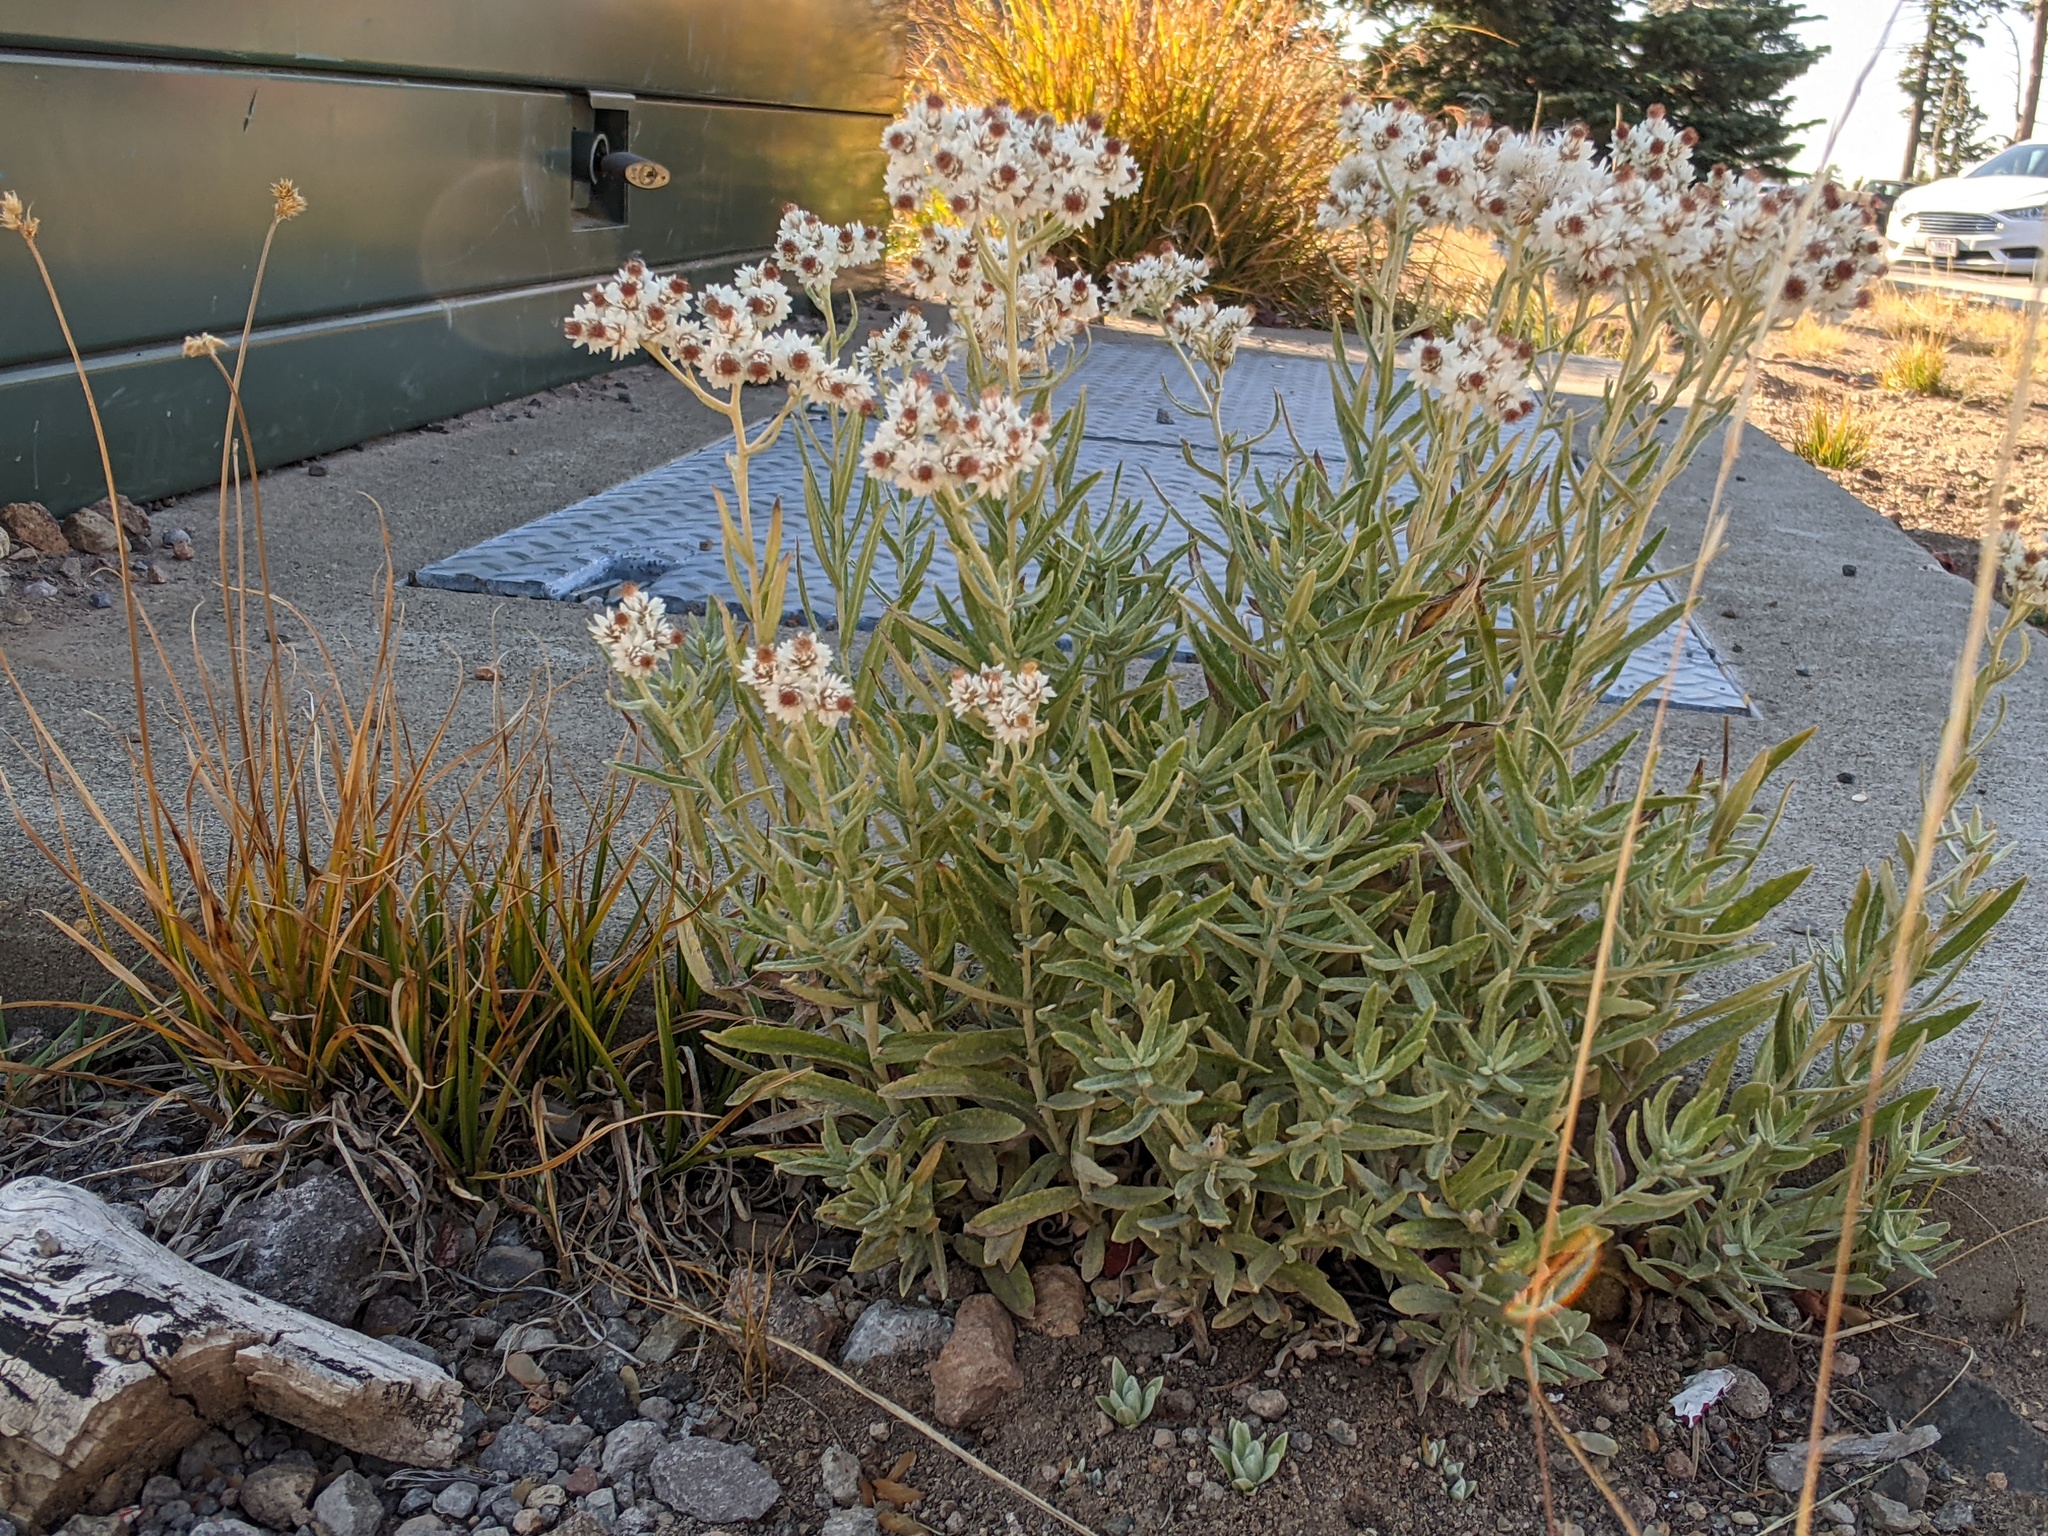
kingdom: Plantae
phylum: Tracheophyta
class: Magnoliopsida
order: Asterales
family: Asteraceae
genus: Anaphalis
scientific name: Anaphalis margaritacea
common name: Pearly everlasting
